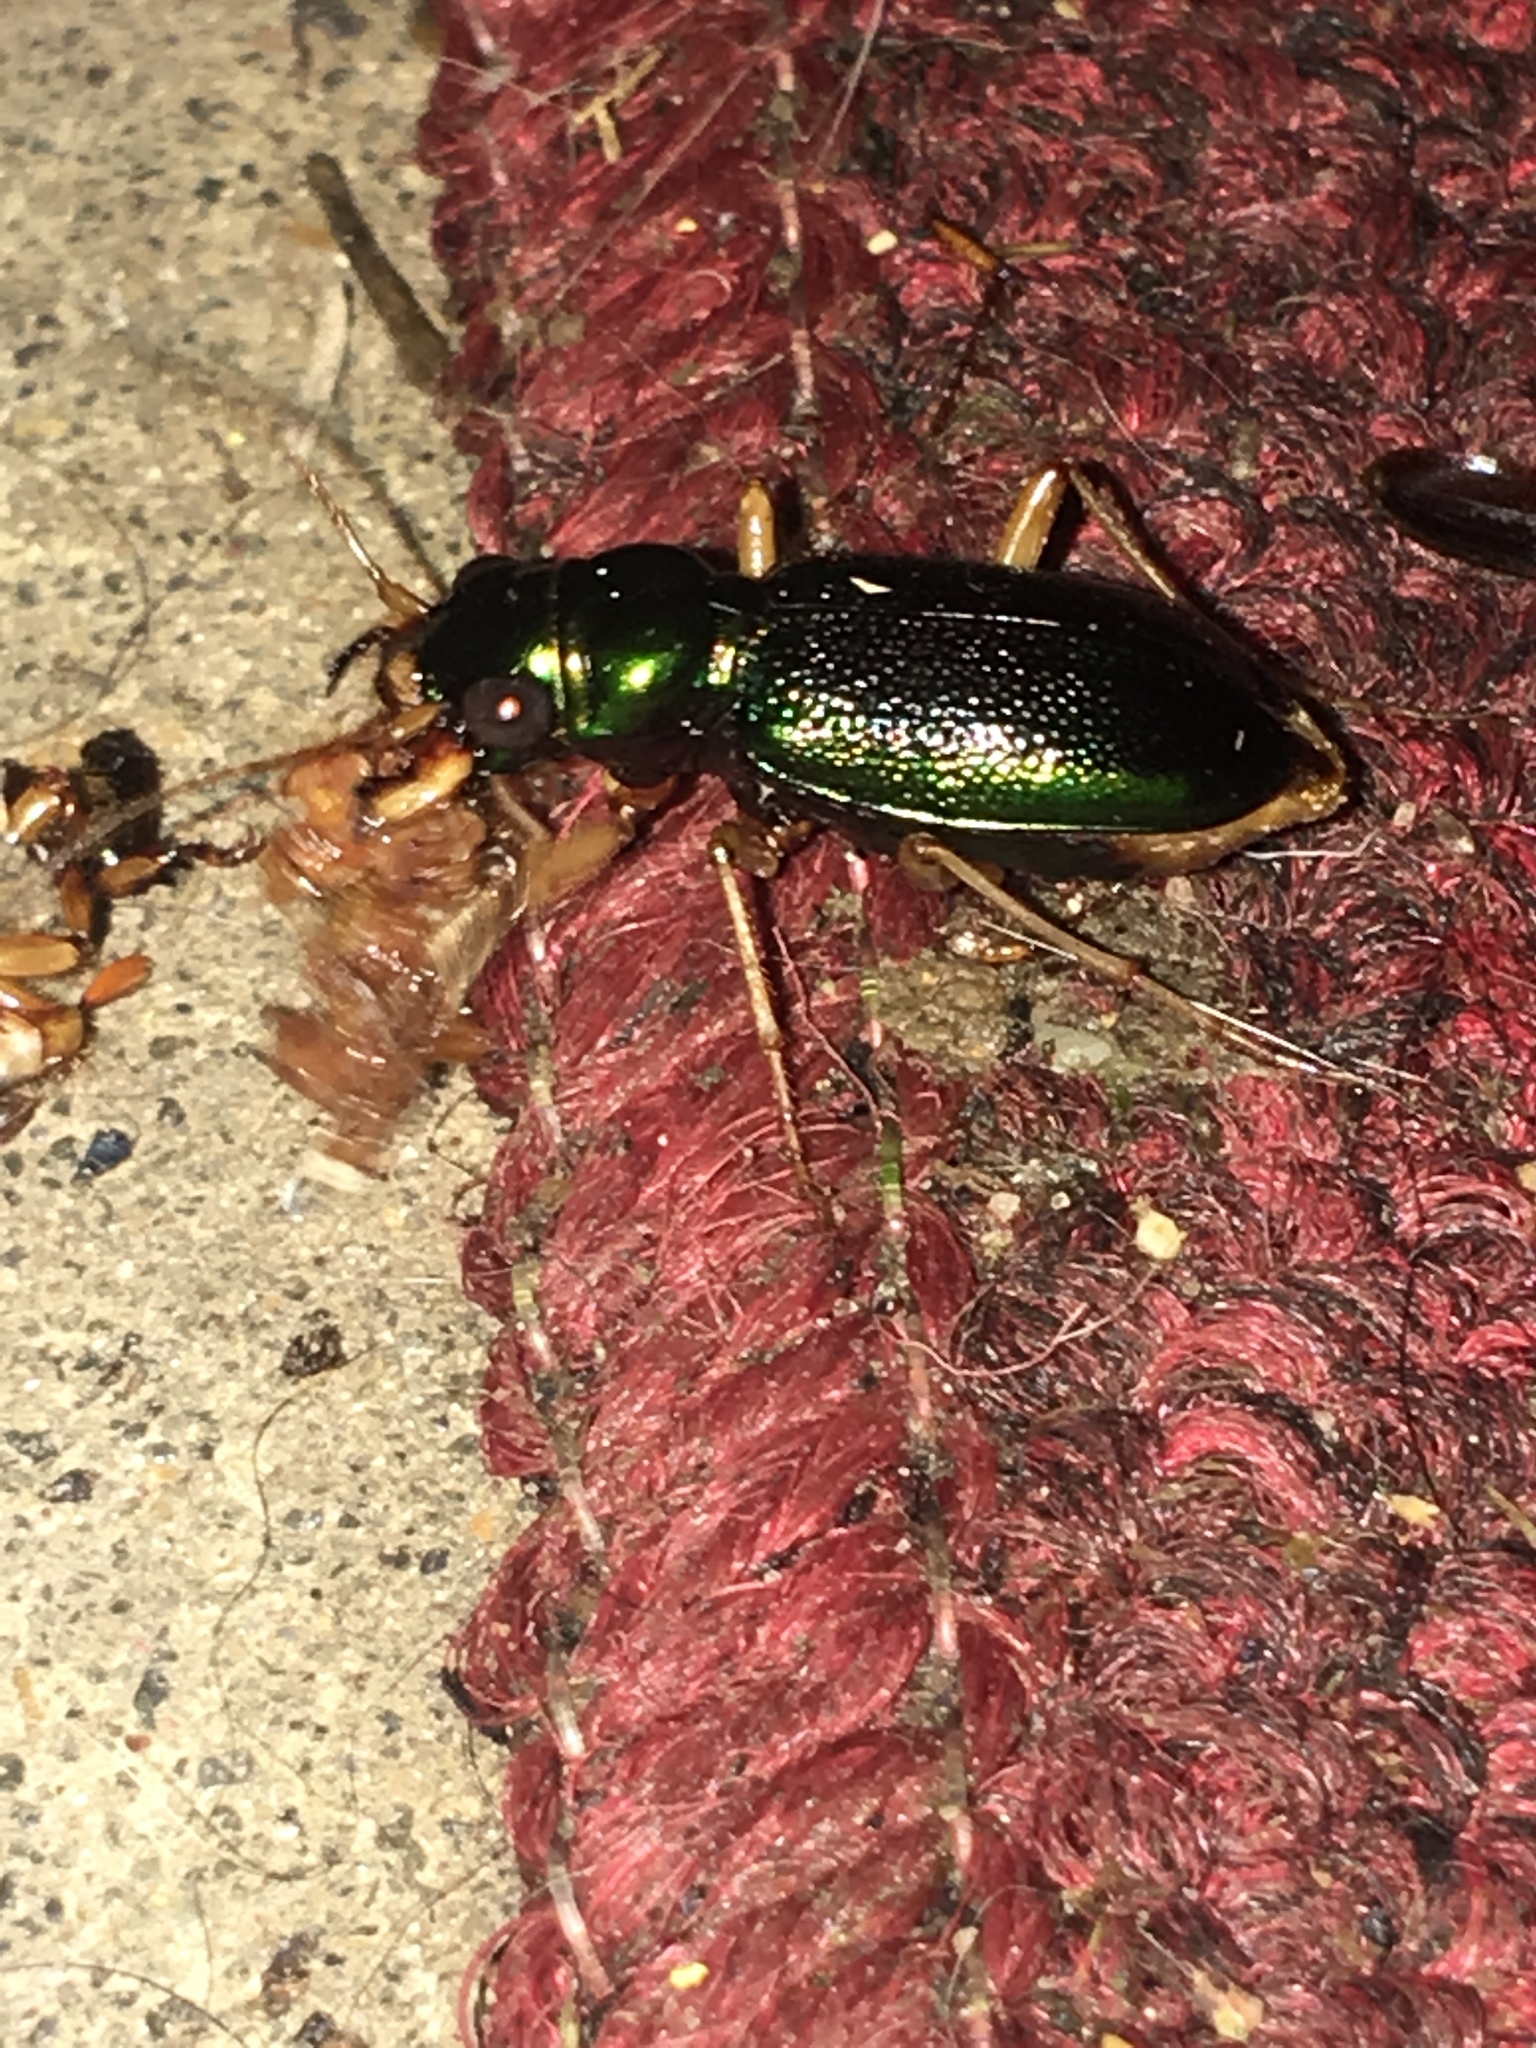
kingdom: Animalia
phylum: Arthropoda
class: Insecta
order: Coleoptera
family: Carabidae
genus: Tetracha
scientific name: Tetracha virginica
